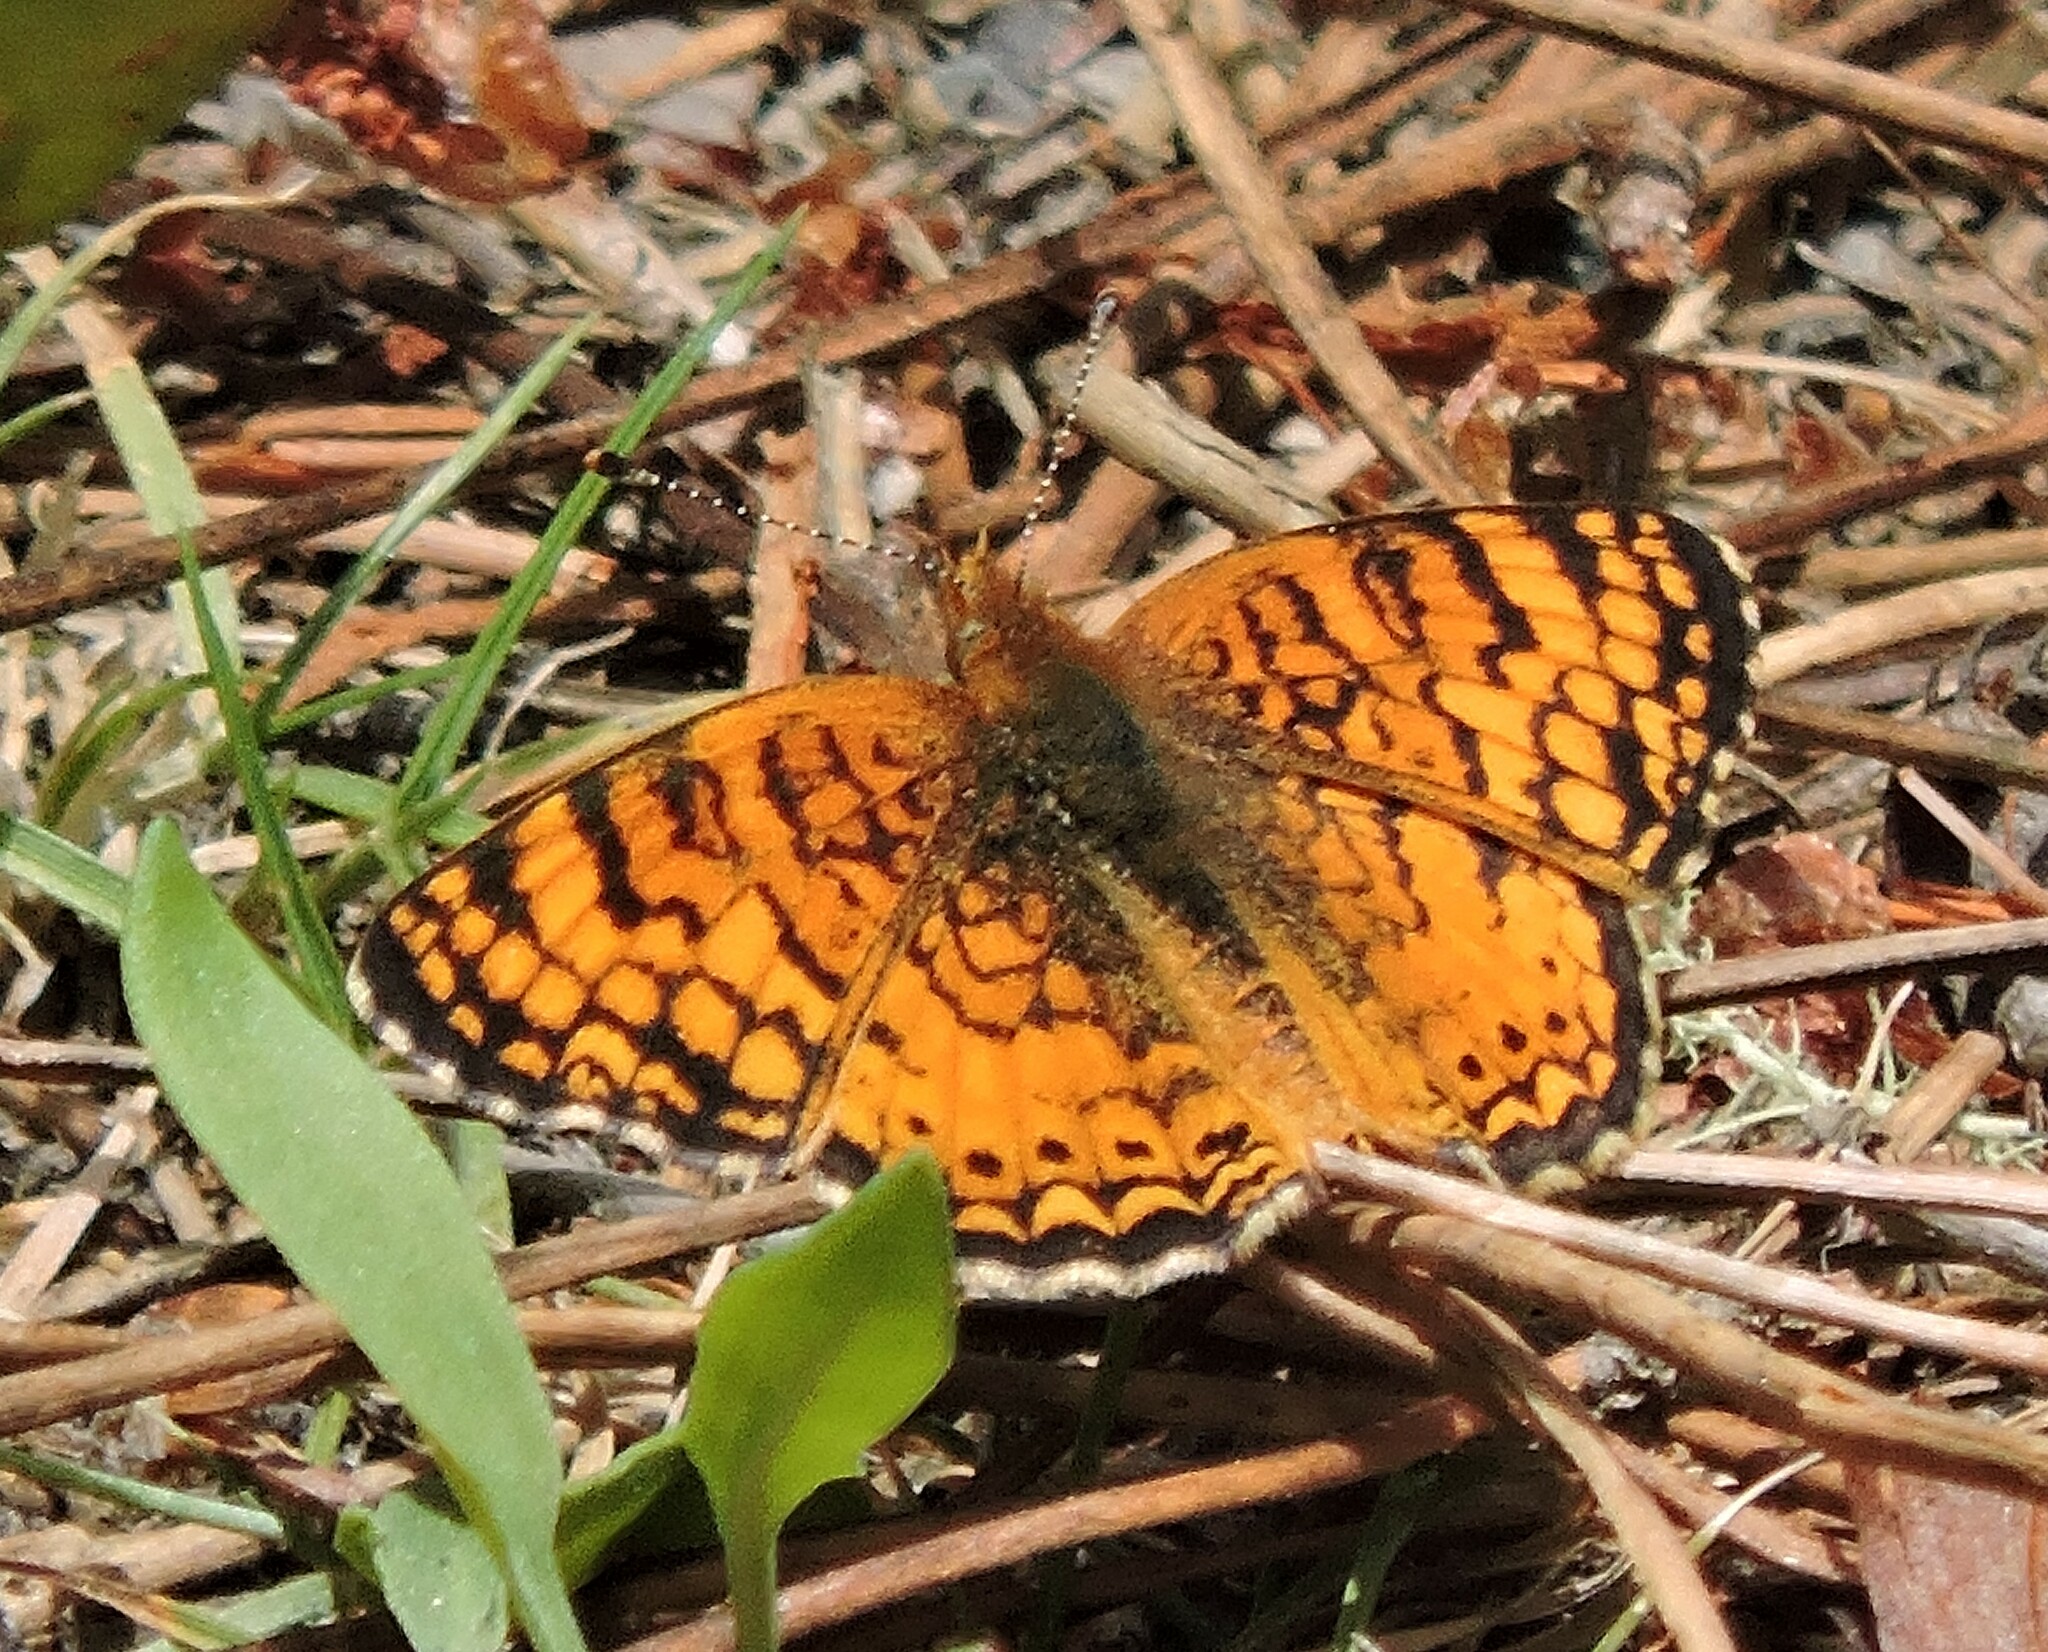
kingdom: Animalia
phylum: Arthropoda
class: Insecta
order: Lepidoptera
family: Nymphalidae
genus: Eresia
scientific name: Eresia aveyrona
